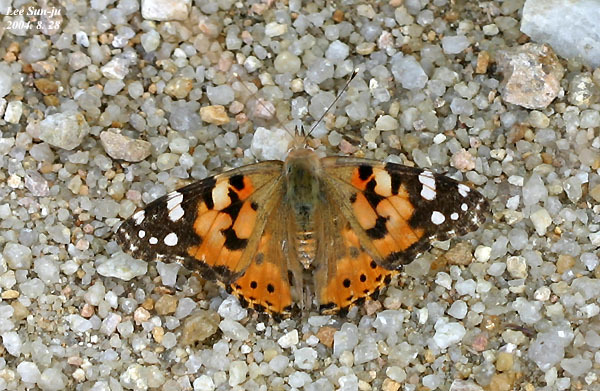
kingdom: Animalia
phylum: Arthropoda
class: Insecta
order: Lepidoptera
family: Nymphalidae
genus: Vanessa
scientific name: Vanessa cardui
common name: Painted lady
